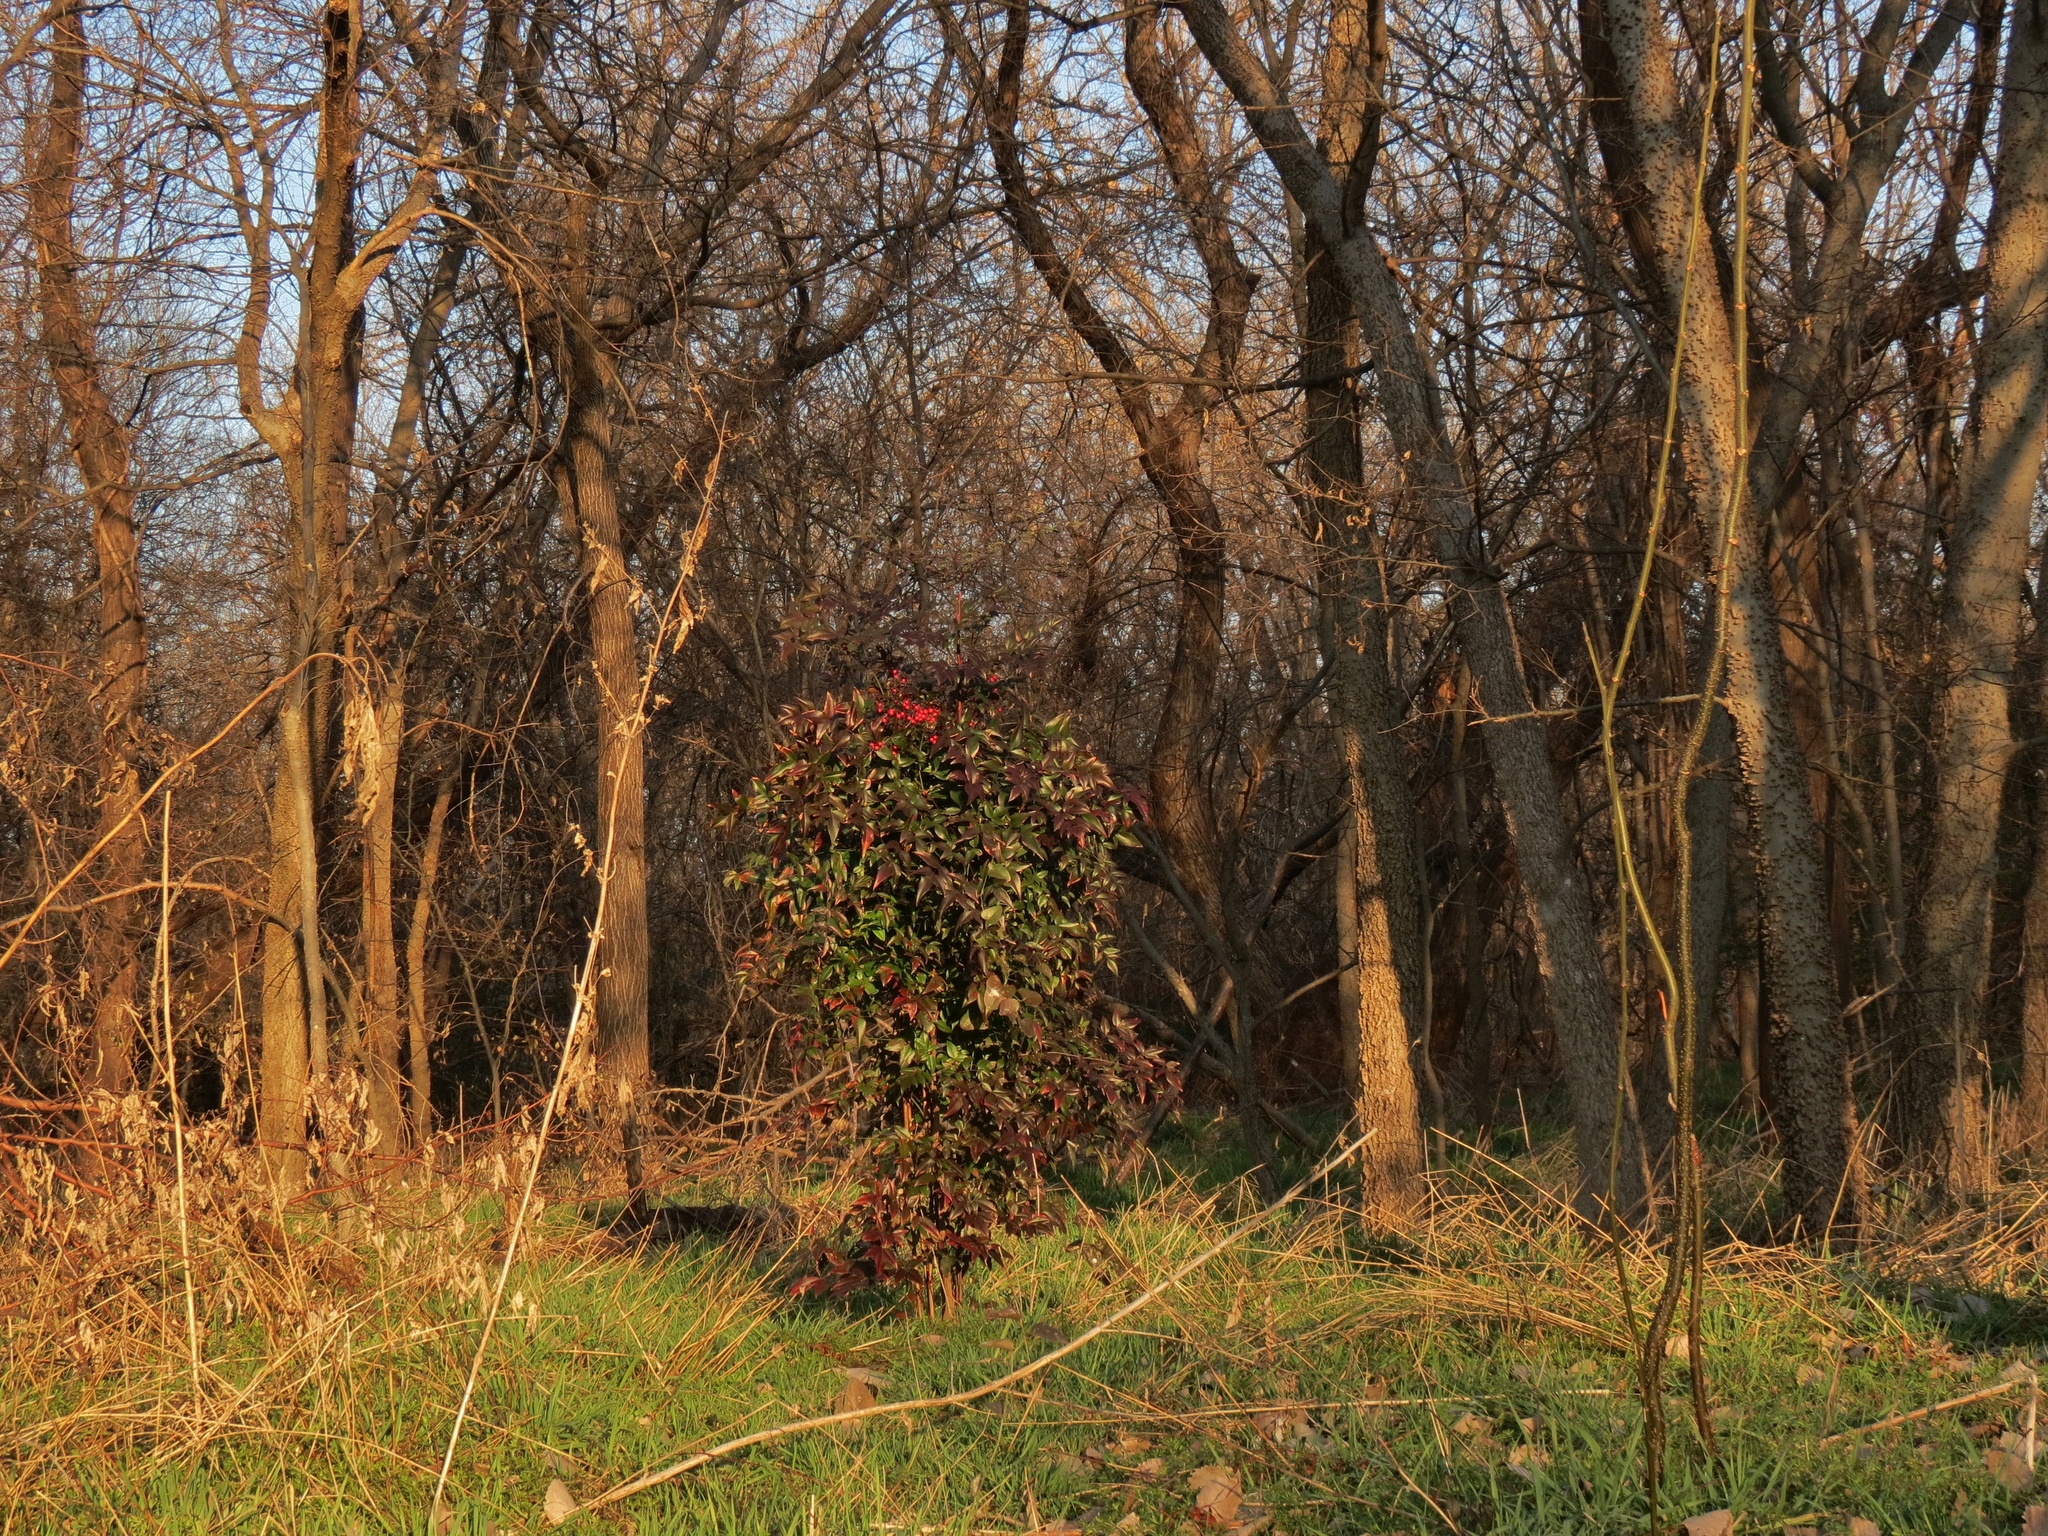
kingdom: Plantae
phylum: Tracheophyta
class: Magnoliopsida
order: Ranunculales
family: Berberidaceae
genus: Nandina
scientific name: Nandina domestica
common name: Sacred bamboo
